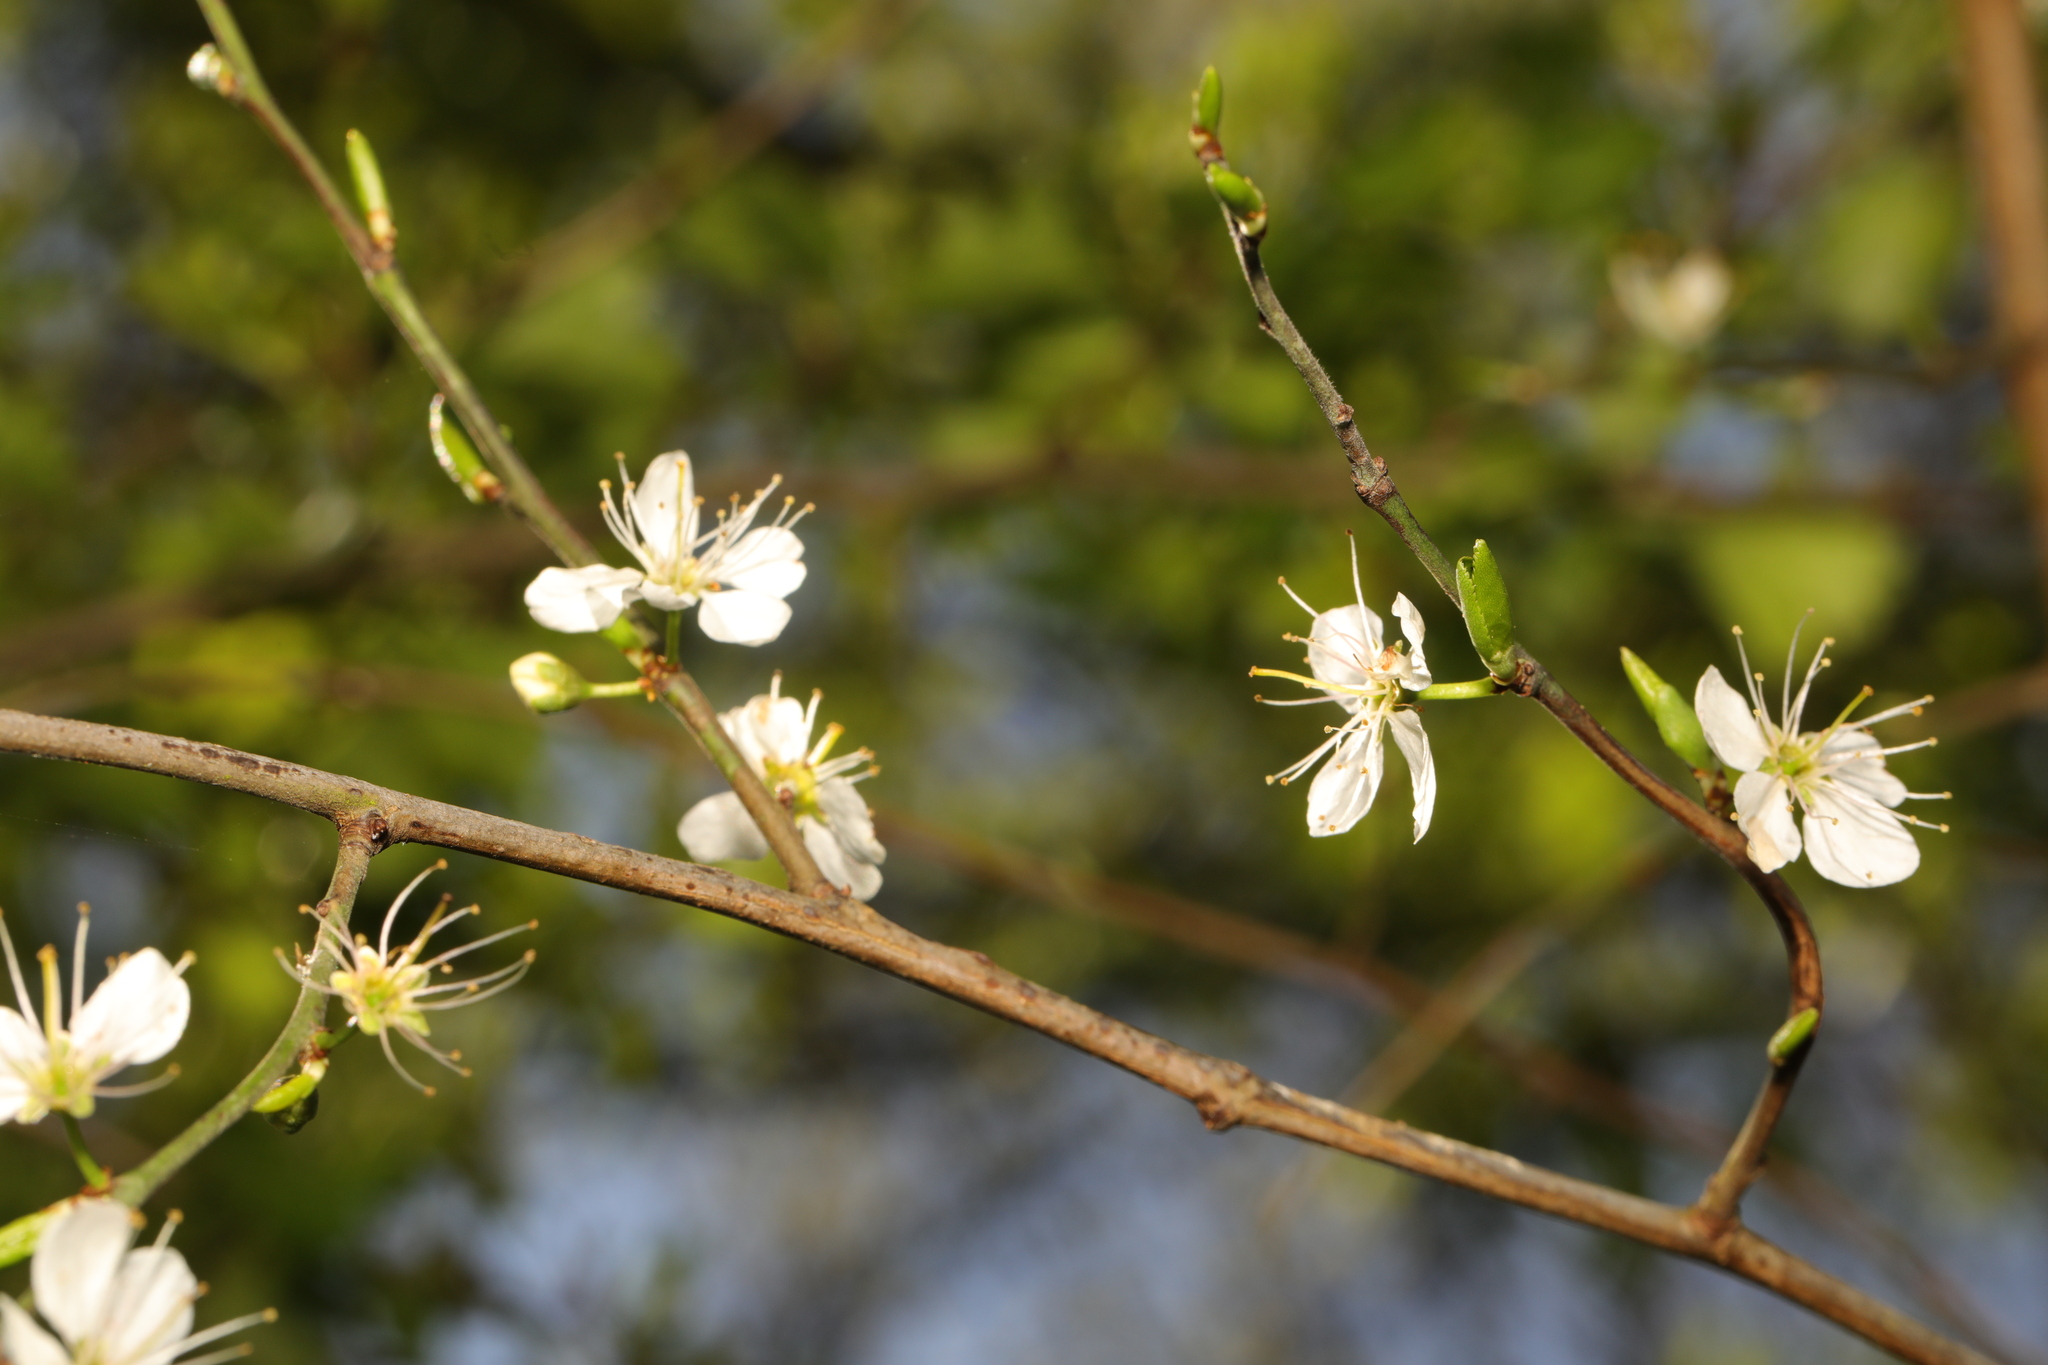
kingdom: Plantae
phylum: Tracheophyta
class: Magnoliopsida
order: Rosales
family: Rosaceae
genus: Prunus
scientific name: Prunus spinosa
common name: Blackthorn
